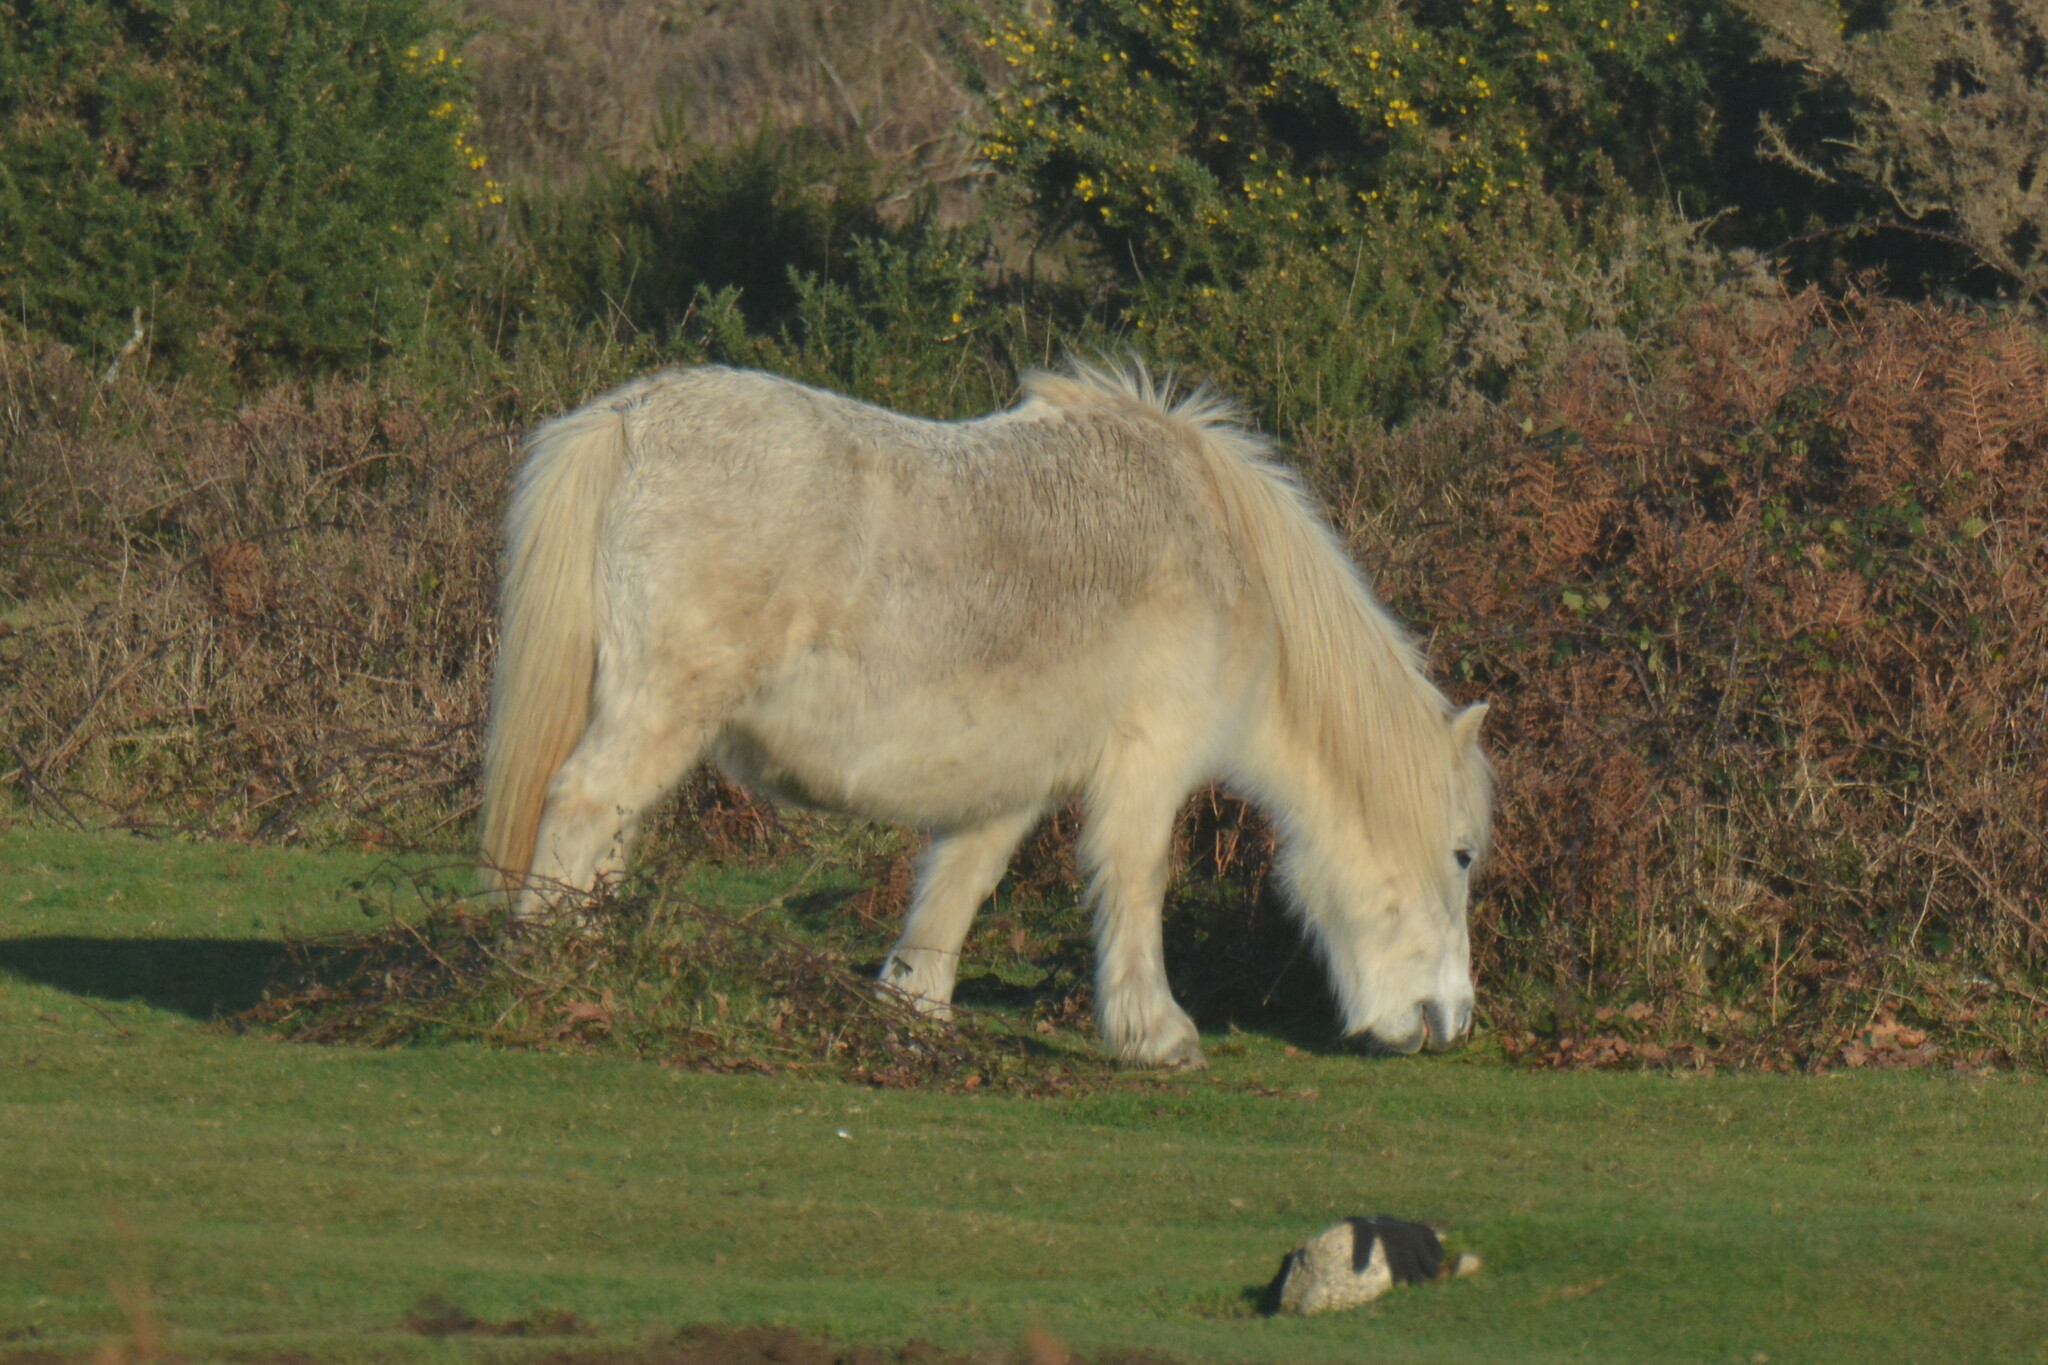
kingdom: Animalia
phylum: Chordata
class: Mammalia
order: Perissodactyla
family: Equidae
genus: Equus
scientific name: Equus caballus
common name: Horse
